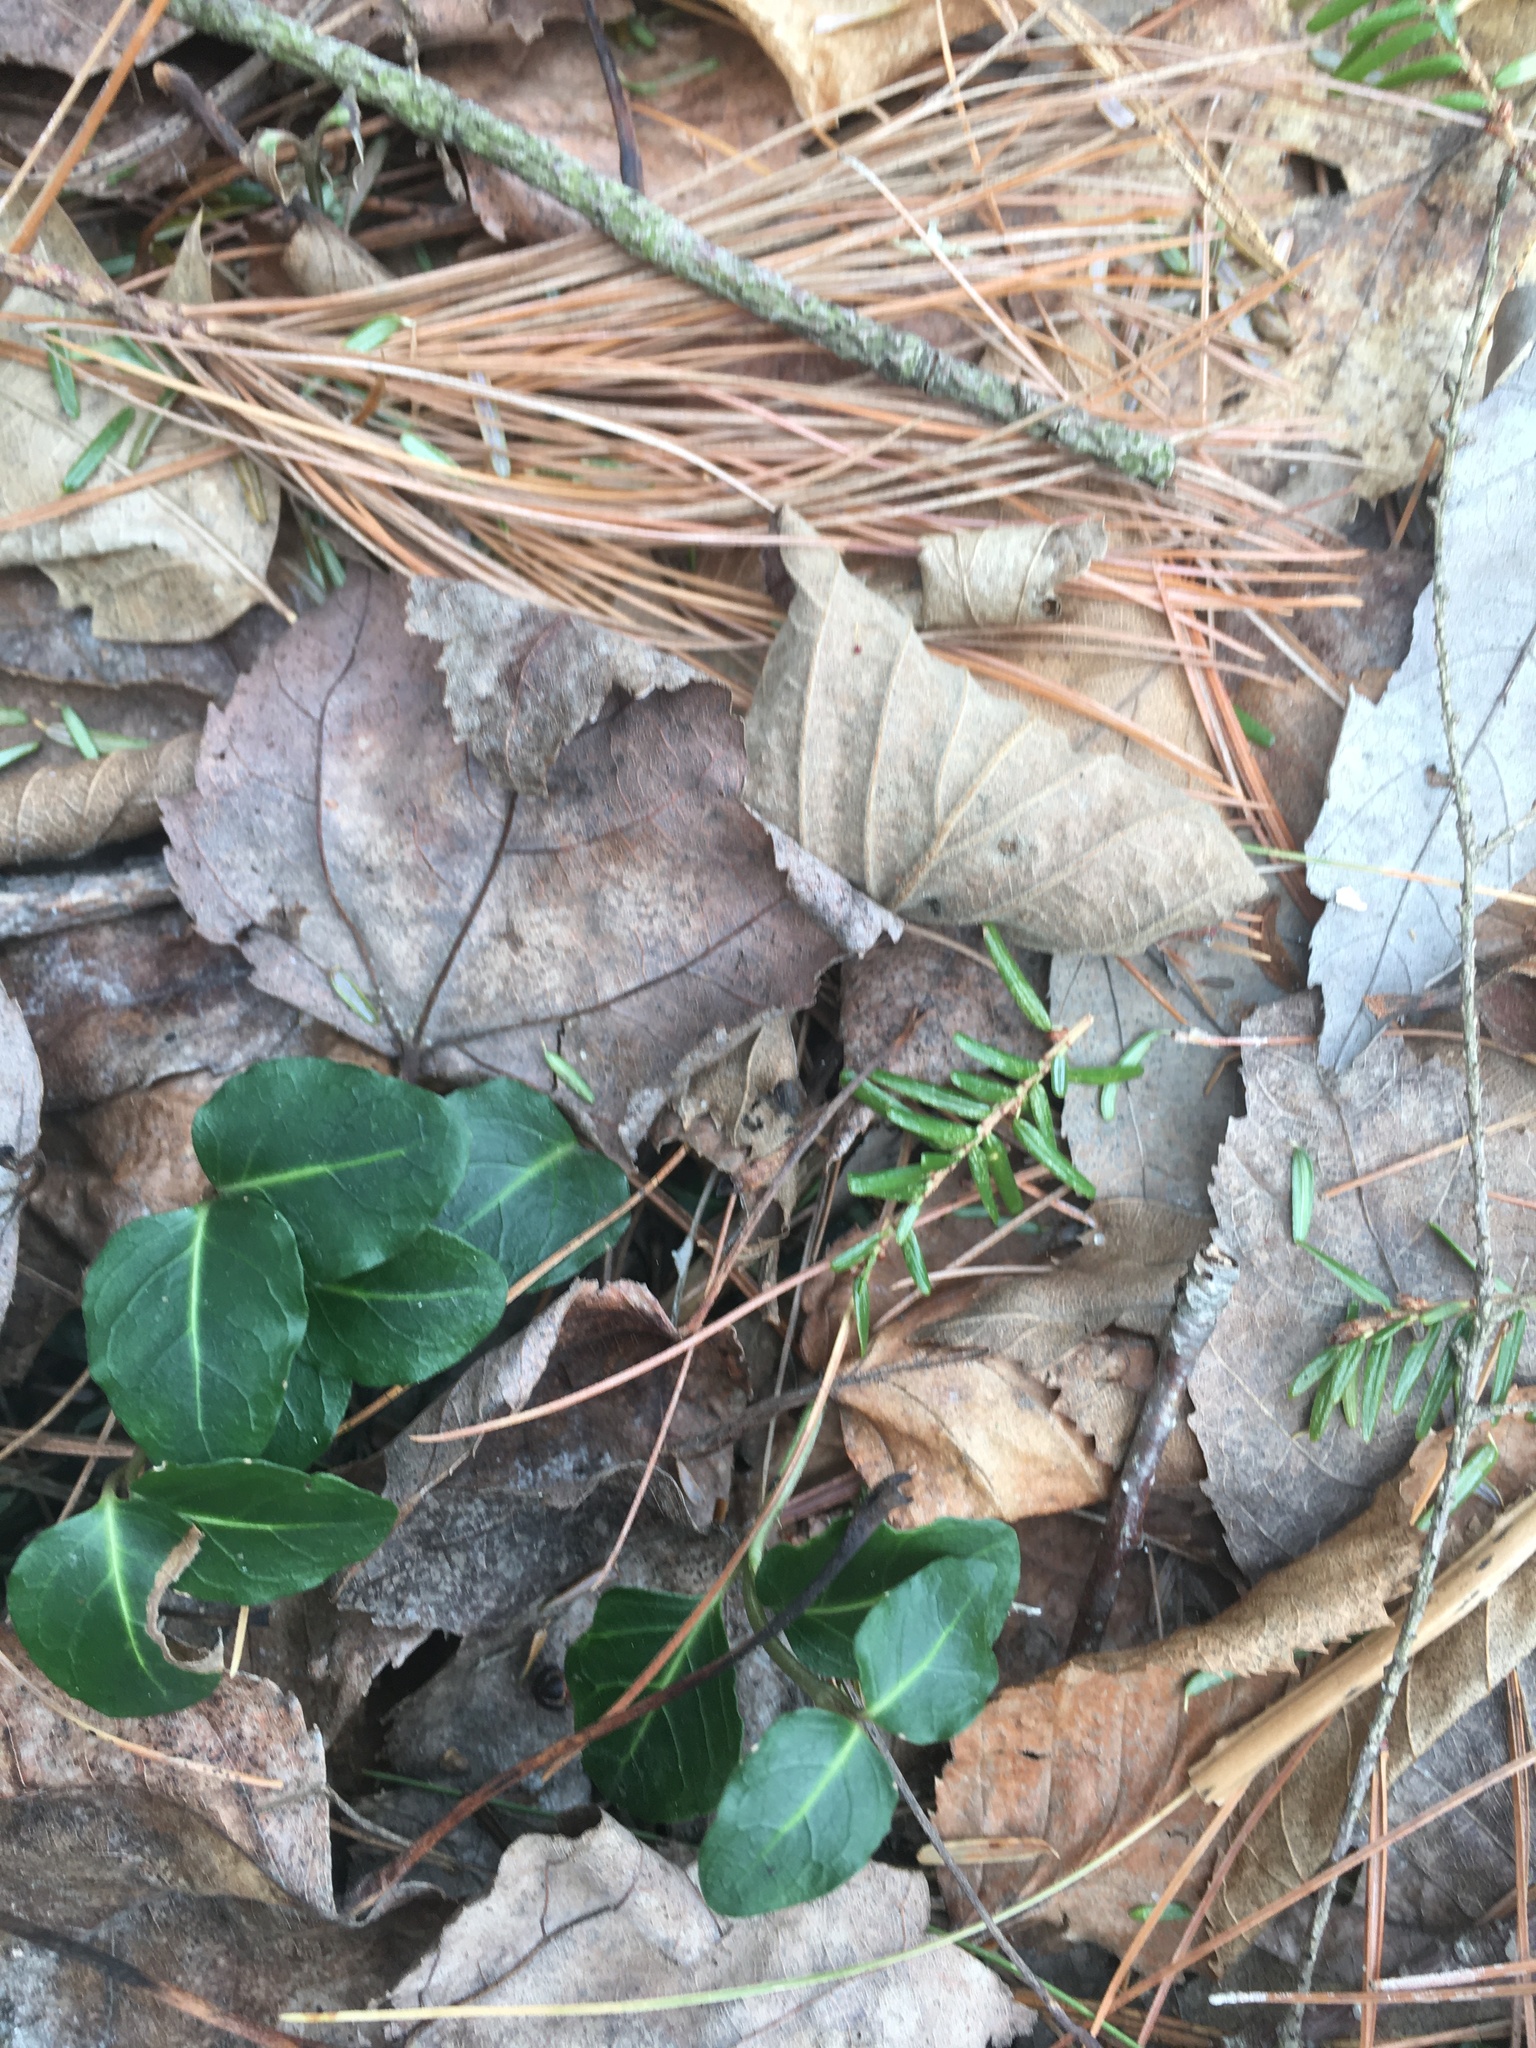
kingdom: Plantae
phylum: Tracheophyta
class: Magnoliopsida
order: Gentianales
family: Rubiaceae
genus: Mitchella
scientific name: Mitchella repens
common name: Partridge-berry
